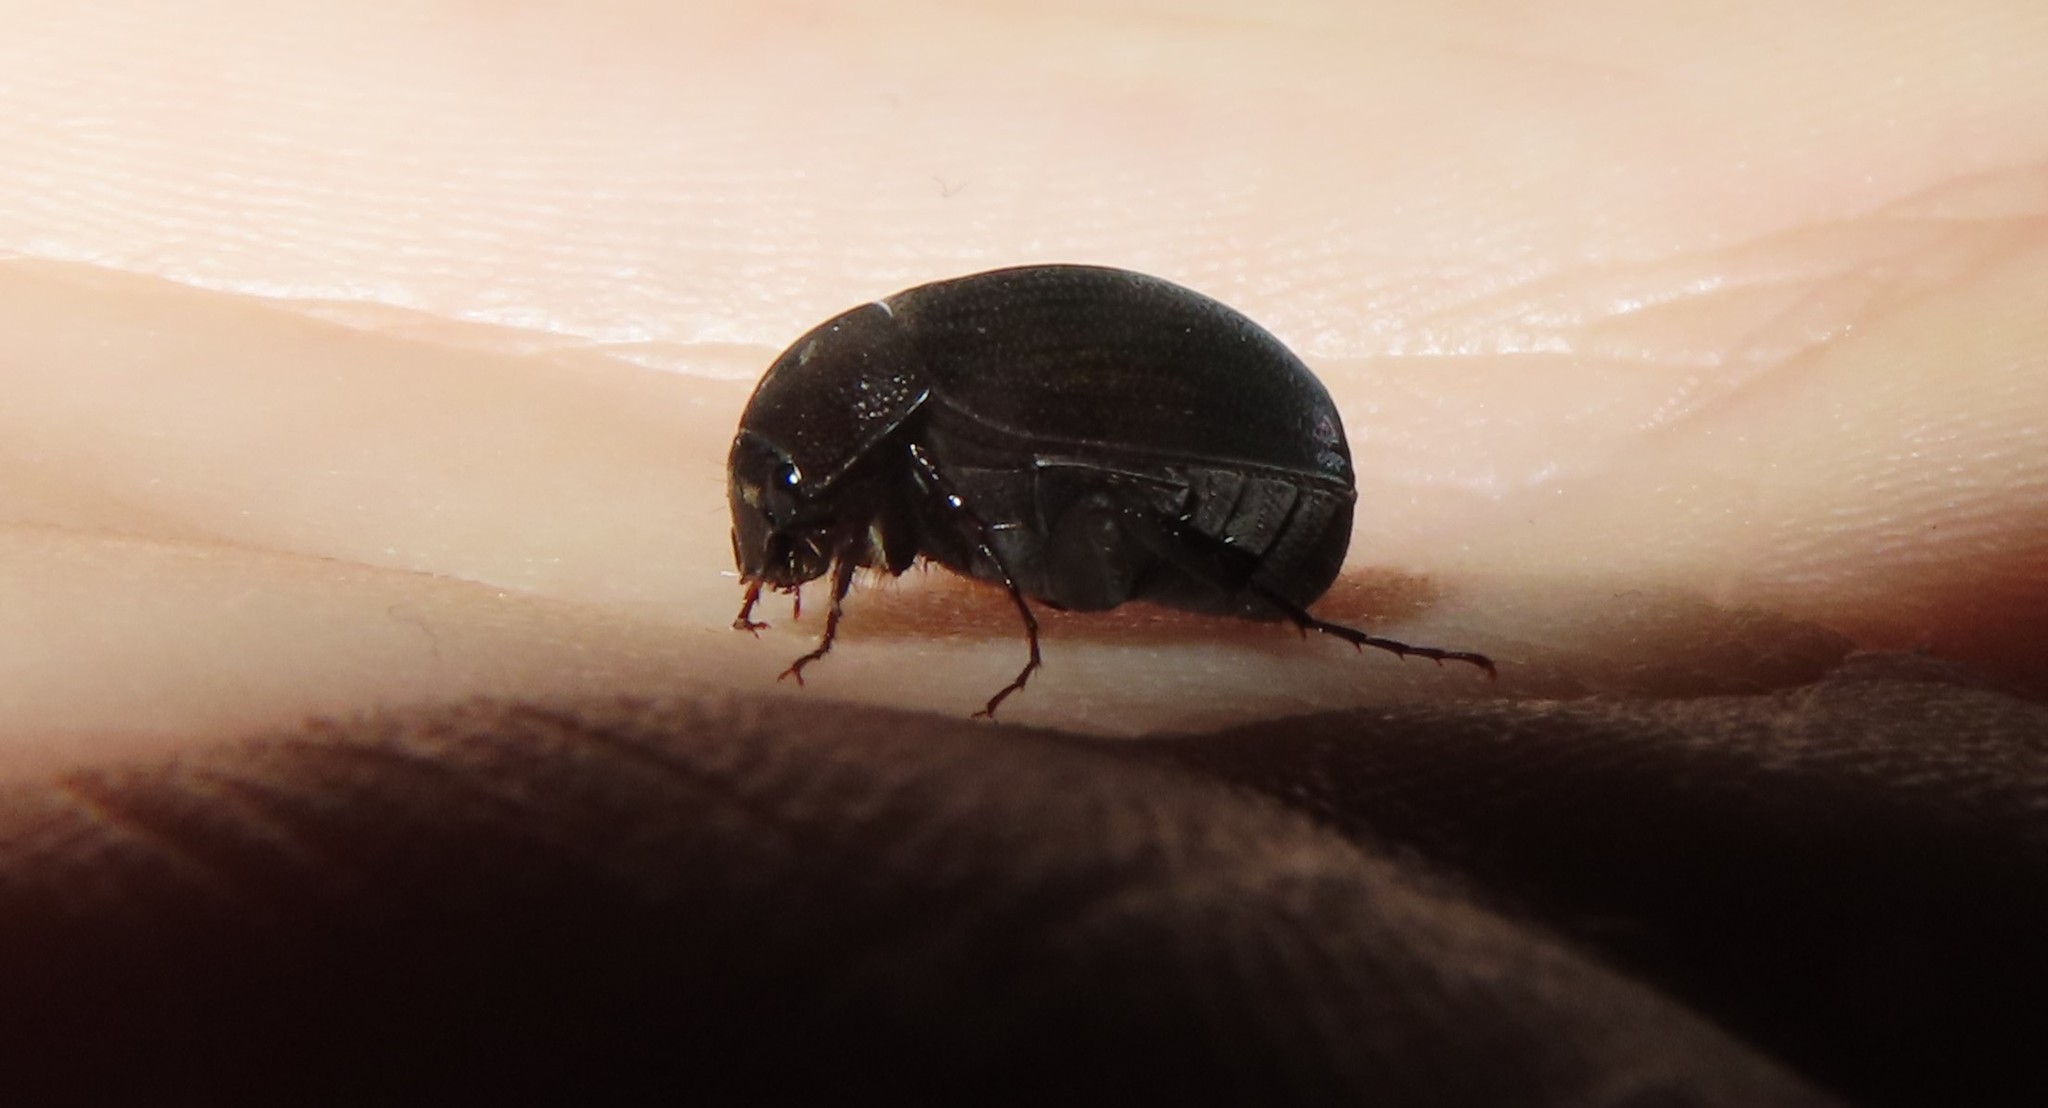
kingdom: Animalia
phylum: Arthropoda
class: Insecta
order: Coleoptera
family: Scarabaeidae
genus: Maladera
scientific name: Maladera formosae
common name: Asiatic garden beetle
